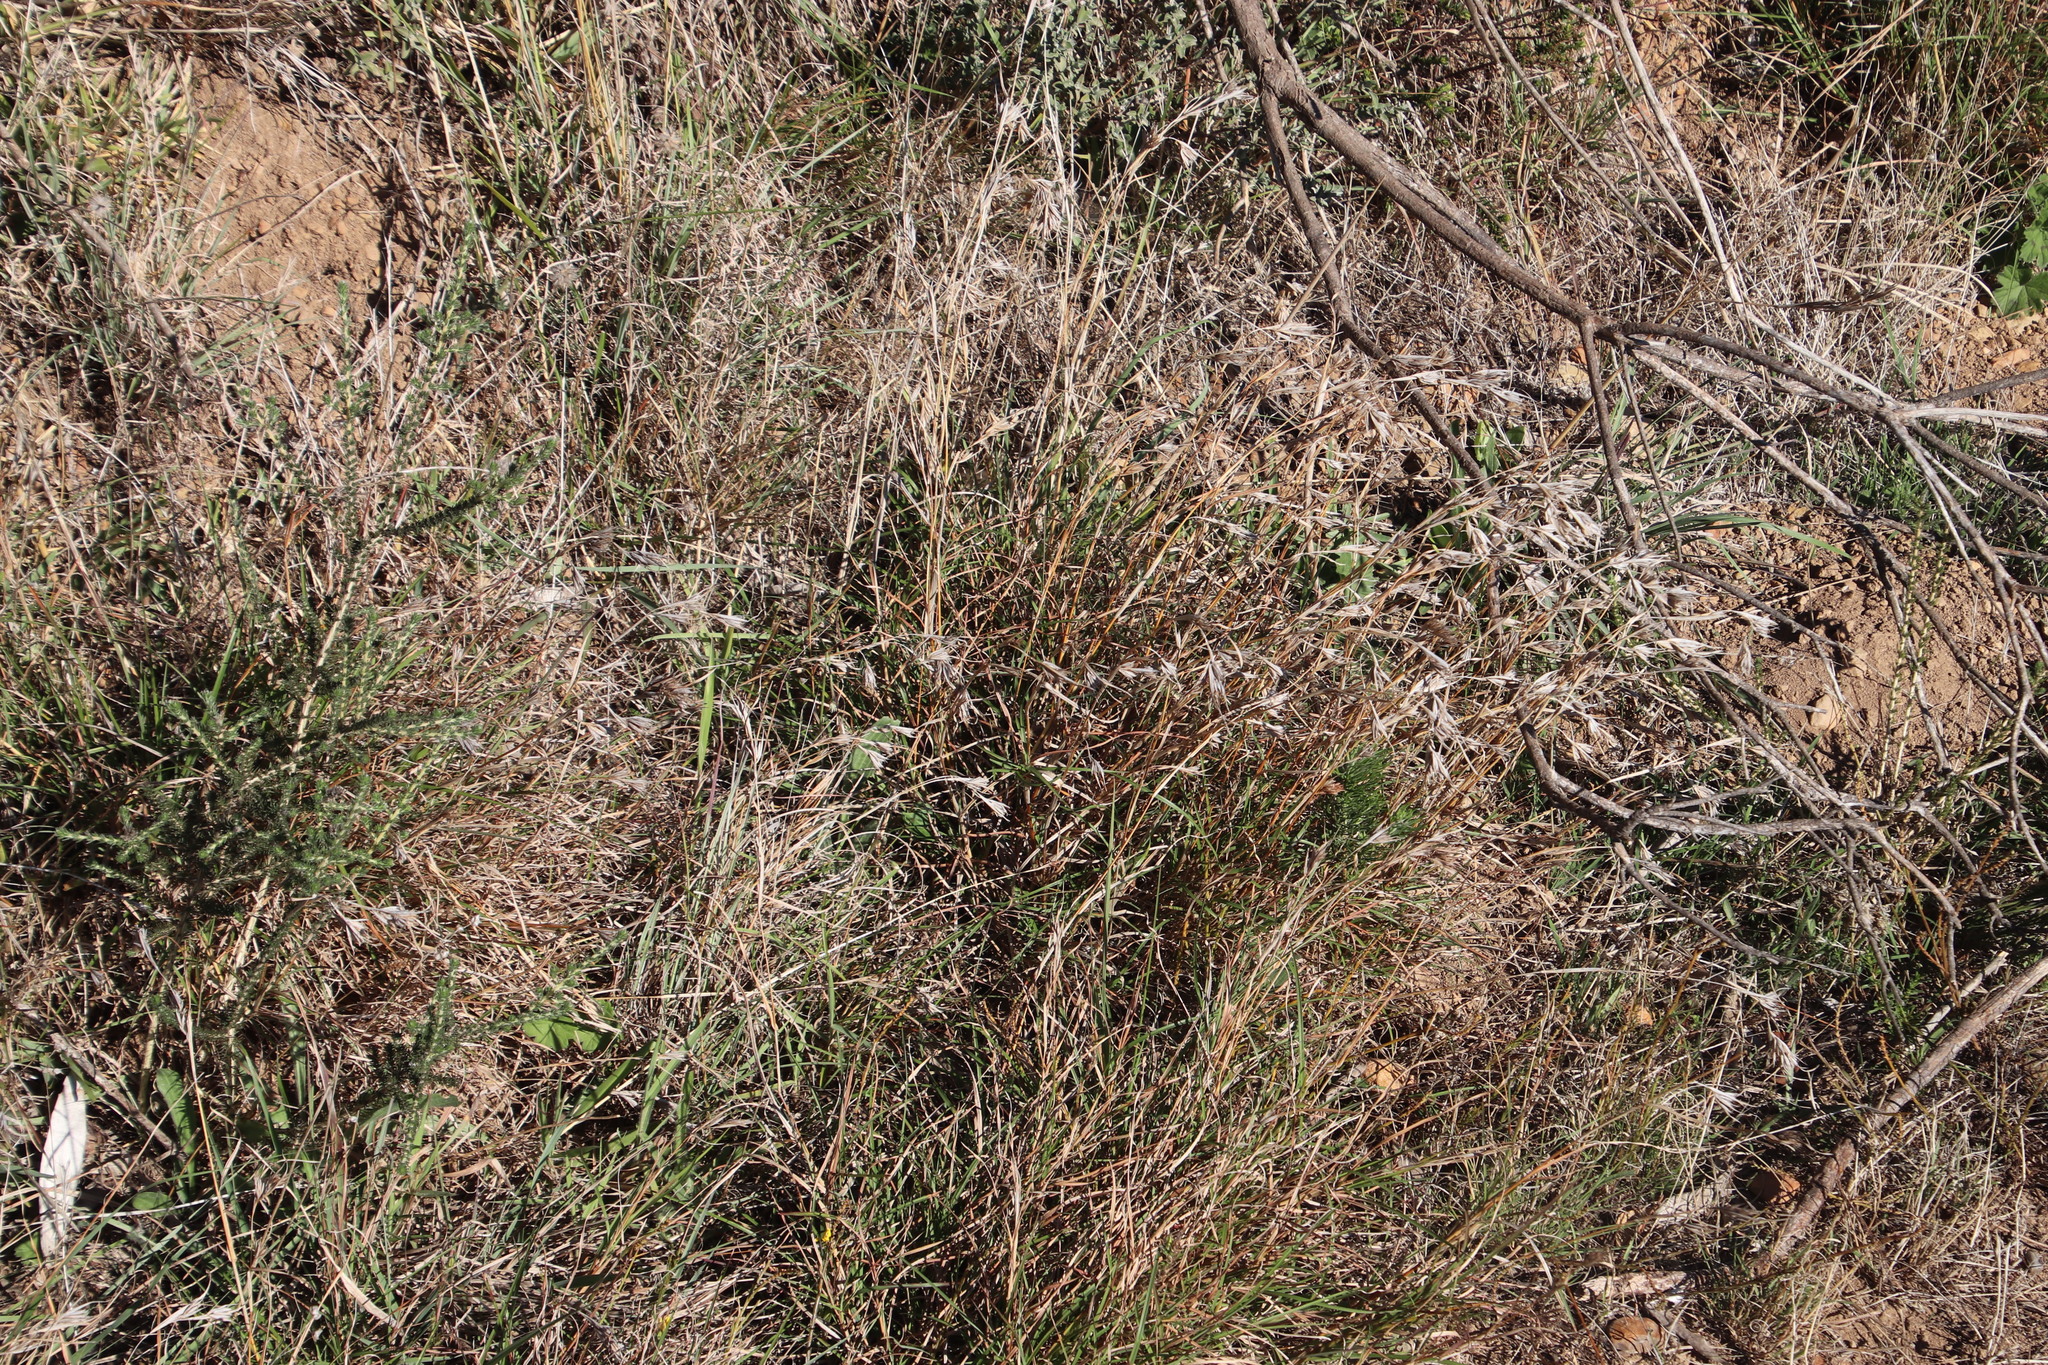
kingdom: Plantae
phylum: Tracheophyta
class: Liliopsida
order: Poales
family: Poaceae
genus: Themeda
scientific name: Themeda triandra
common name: Kangaroo grass
